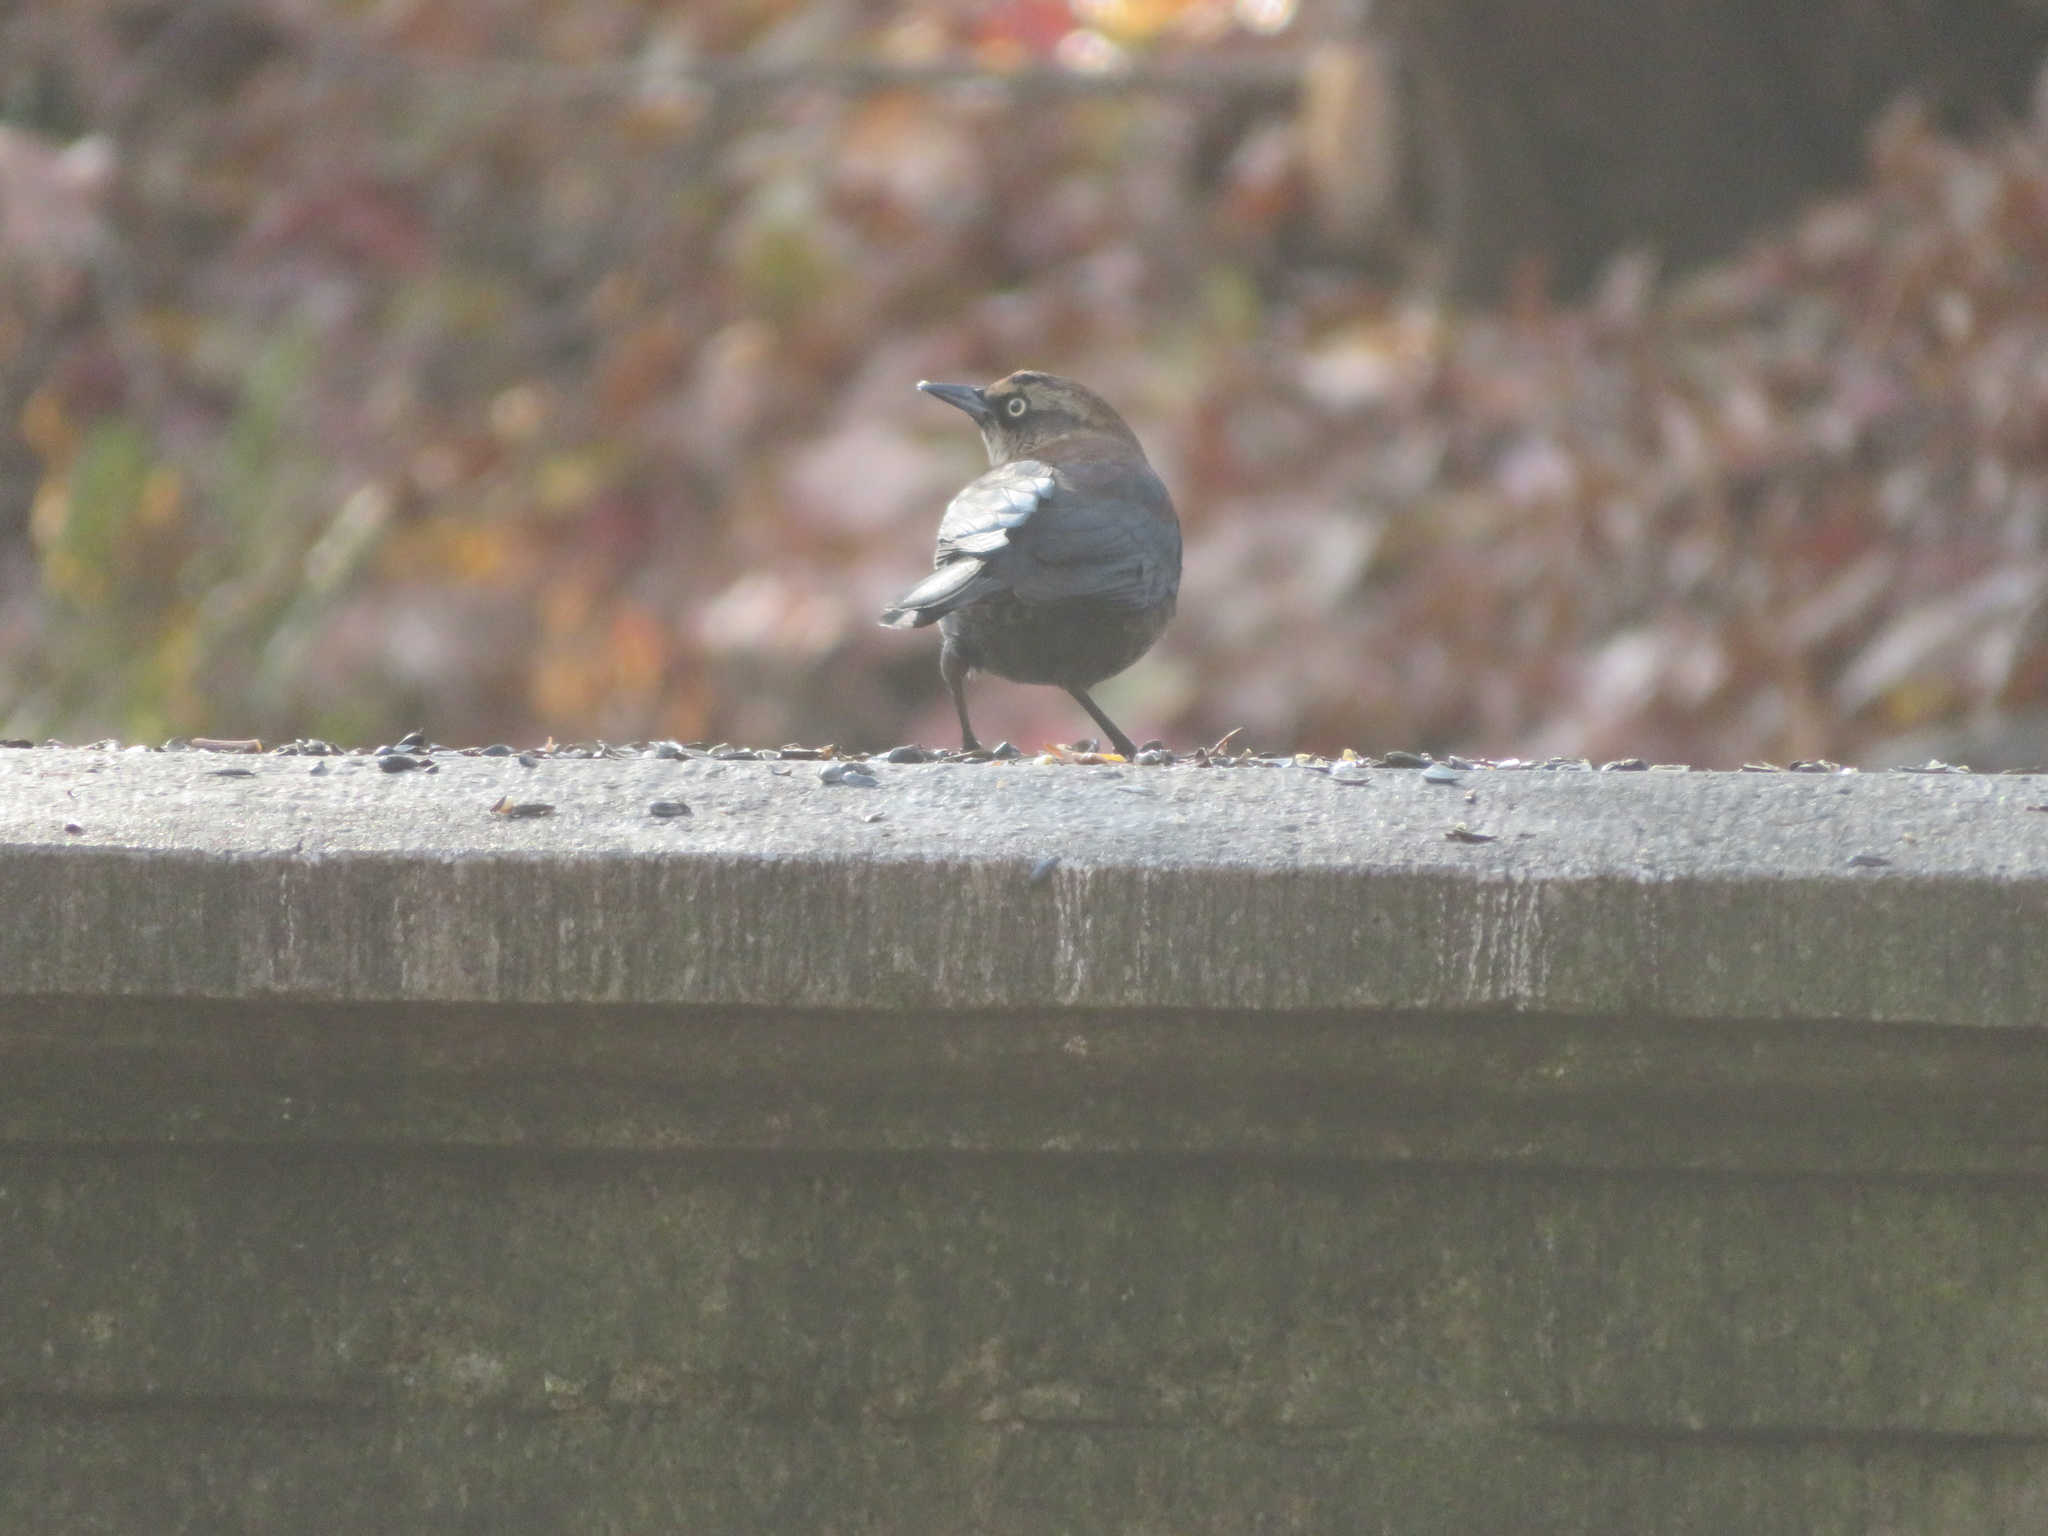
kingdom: Animalia
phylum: Chordata
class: Aves
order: Passeriformes
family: Icteridae
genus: Euphagus
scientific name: Euphagus carolinus
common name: Rusty blackbird
